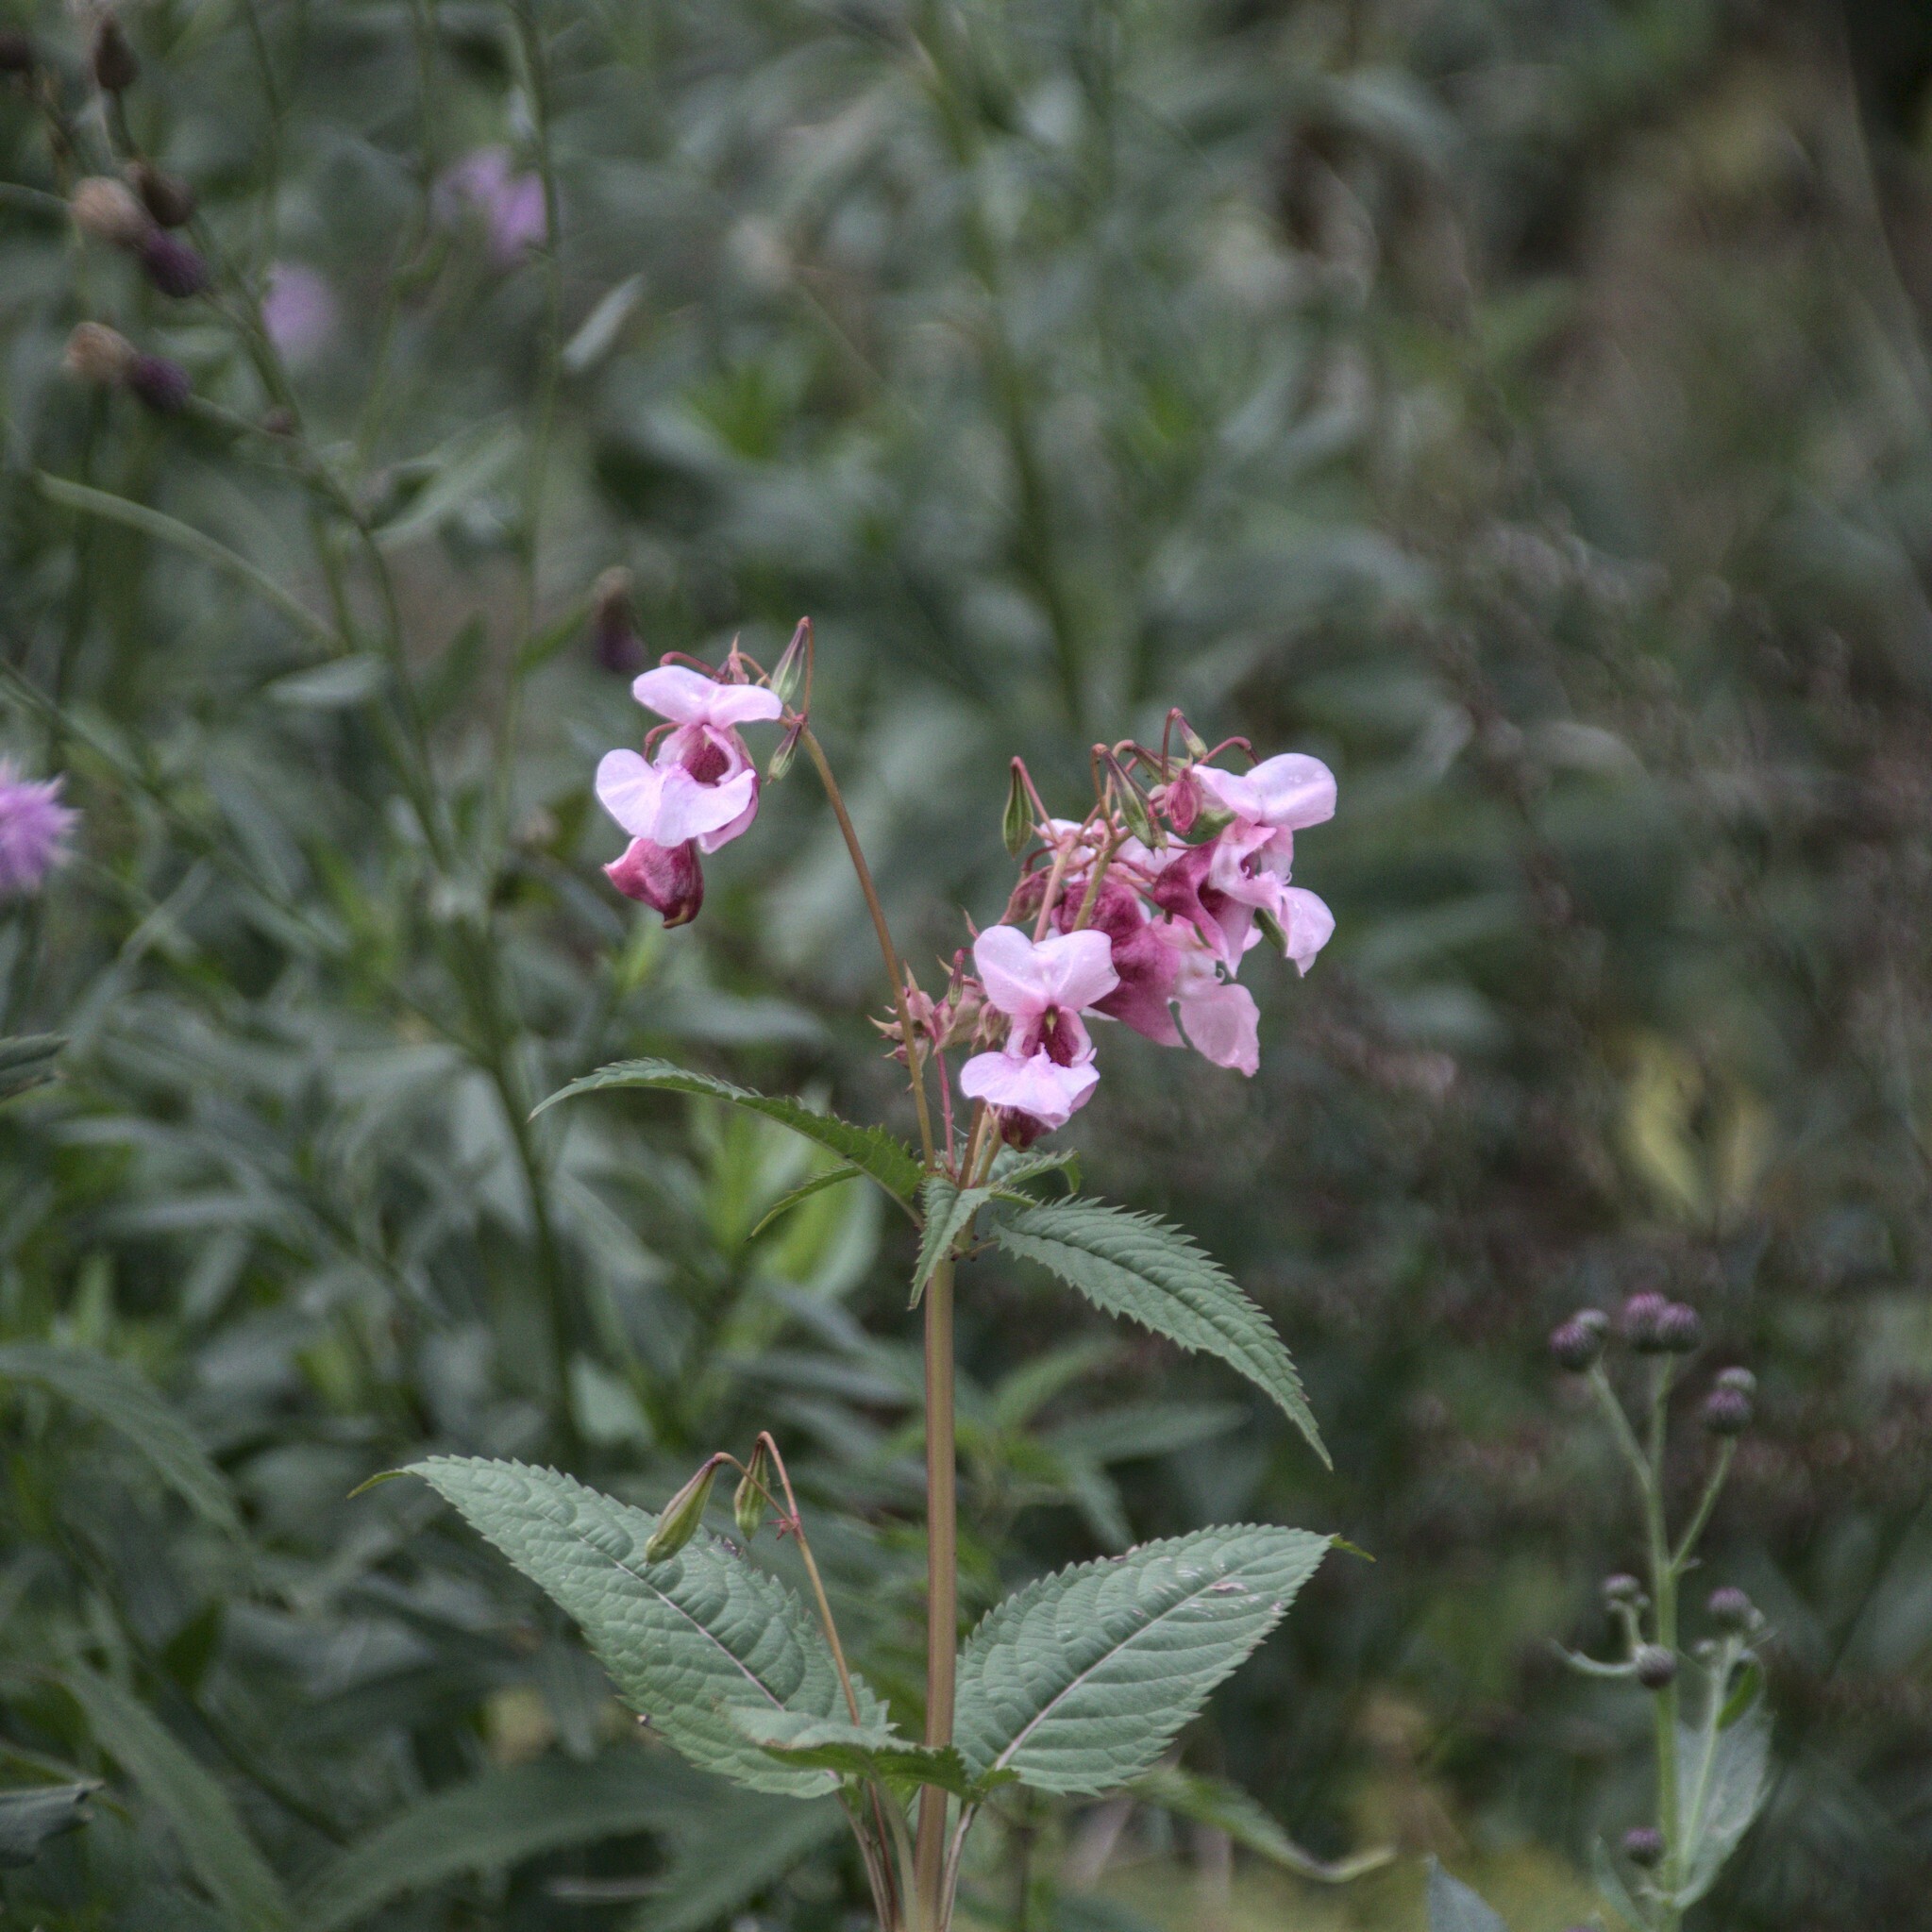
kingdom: Plantae
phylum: Tracheophyta
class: Magnoliopsida
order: Ericales
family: Balsaminaceae
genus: Impatiens
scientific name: Impatiens glandulifera
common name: Himalayan balsam
